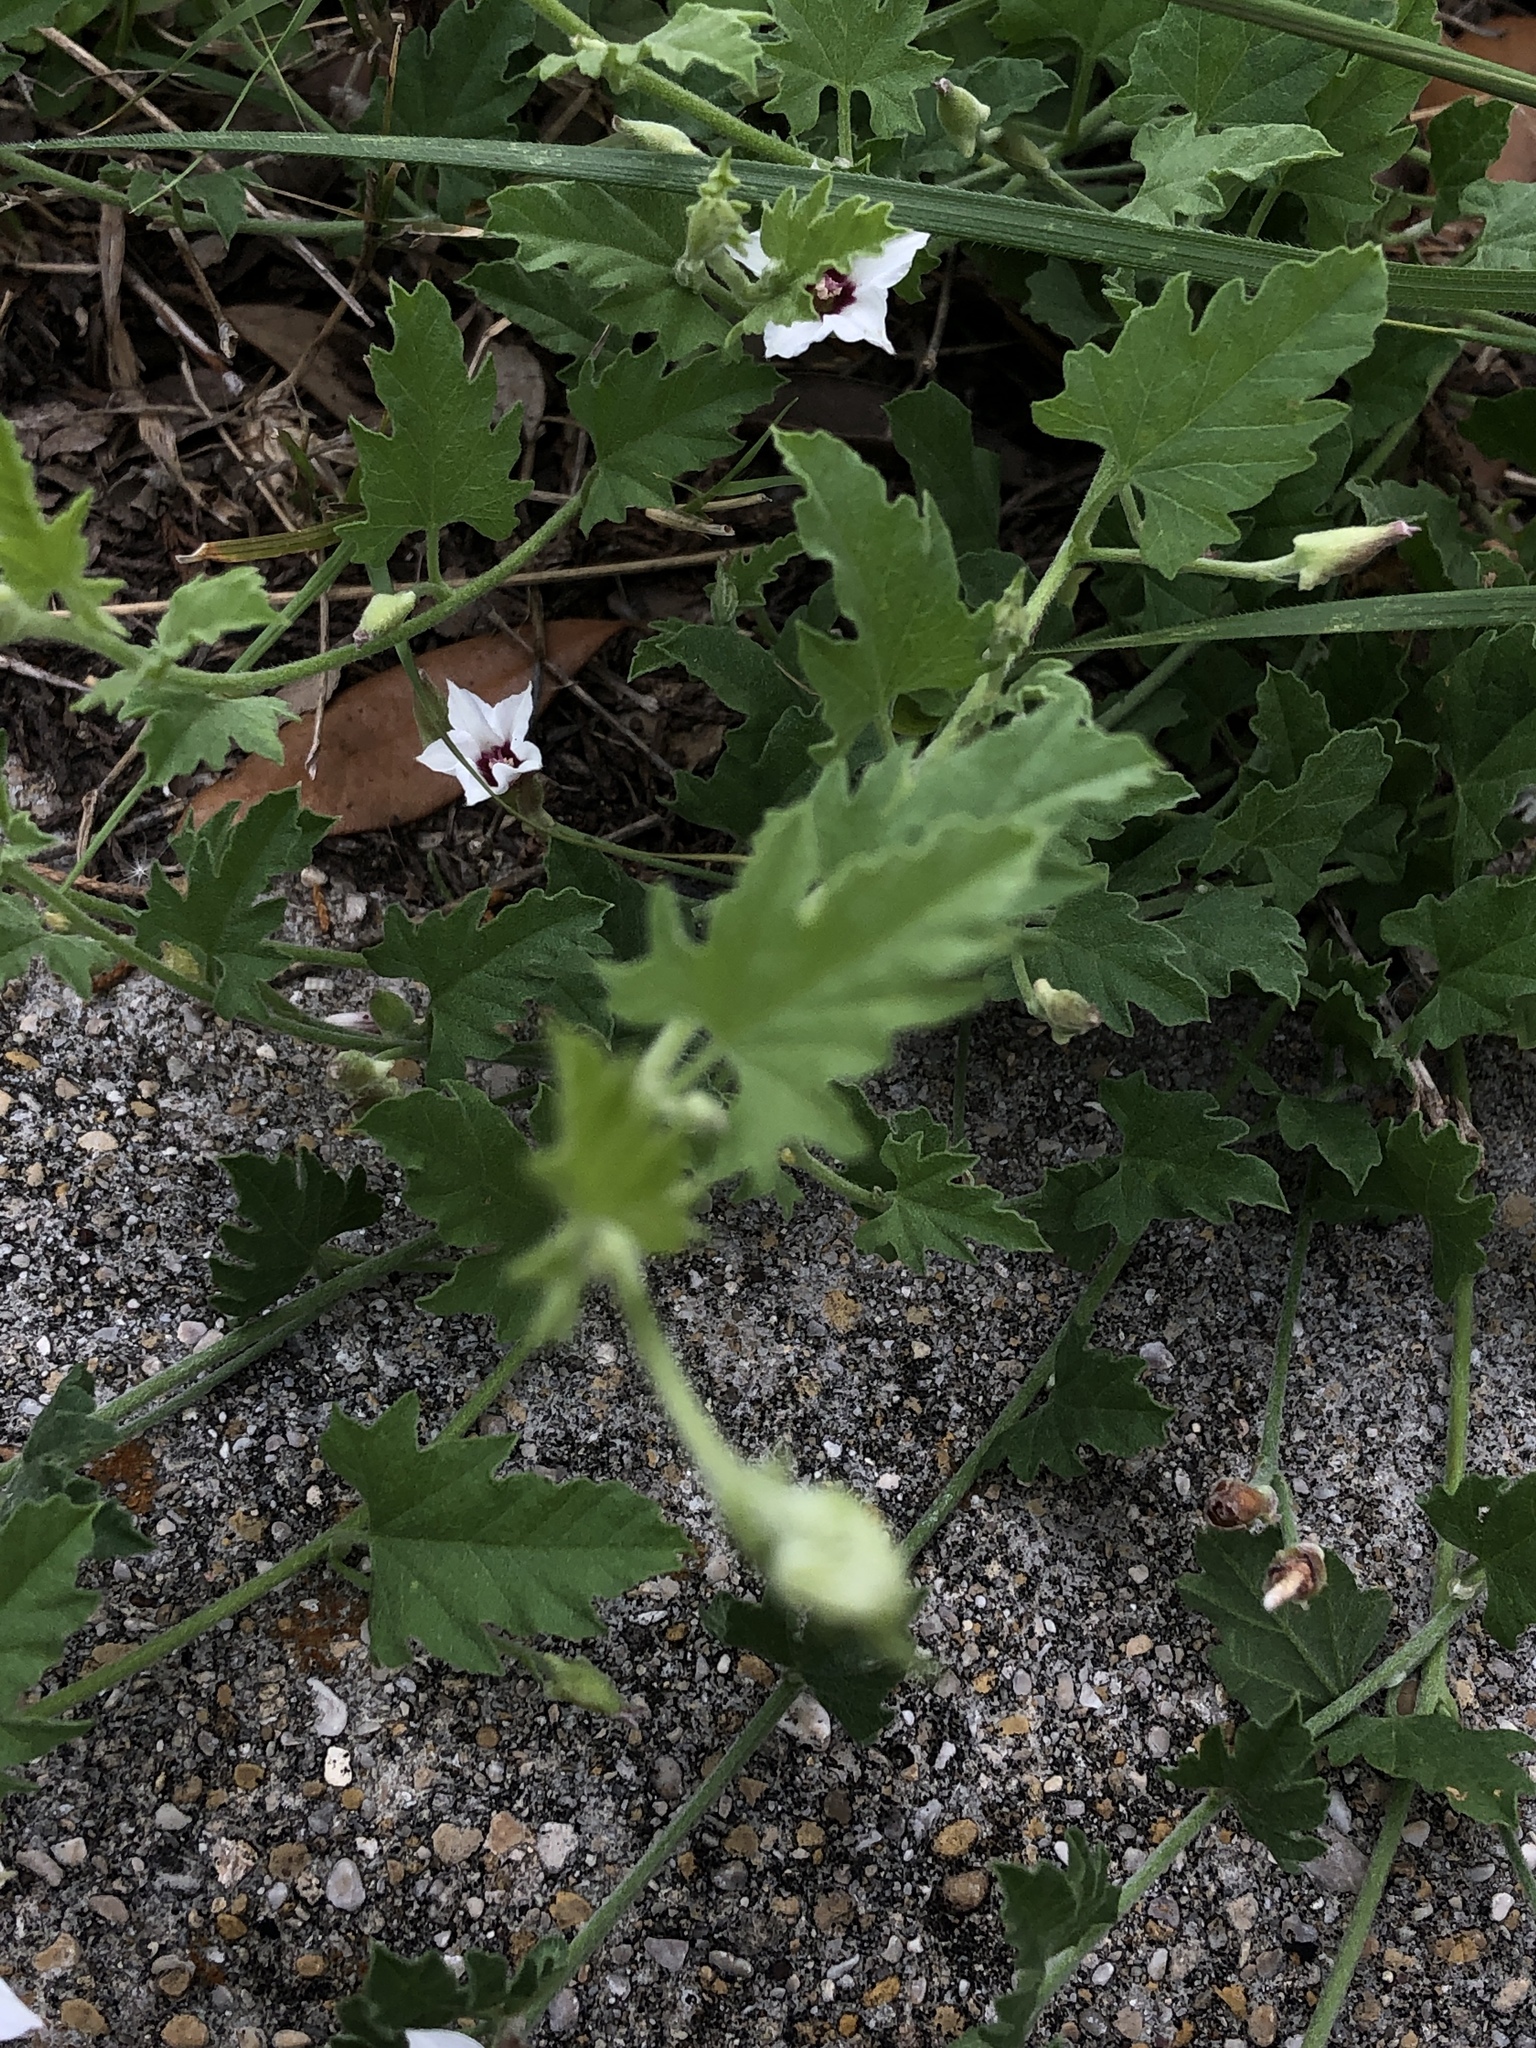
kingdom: Plantae
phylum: Tracheophyta
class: Magnoliopsida
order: Solanales
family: Convolvulaceae
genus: Convolvulus
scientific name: Convolvulus equitans
